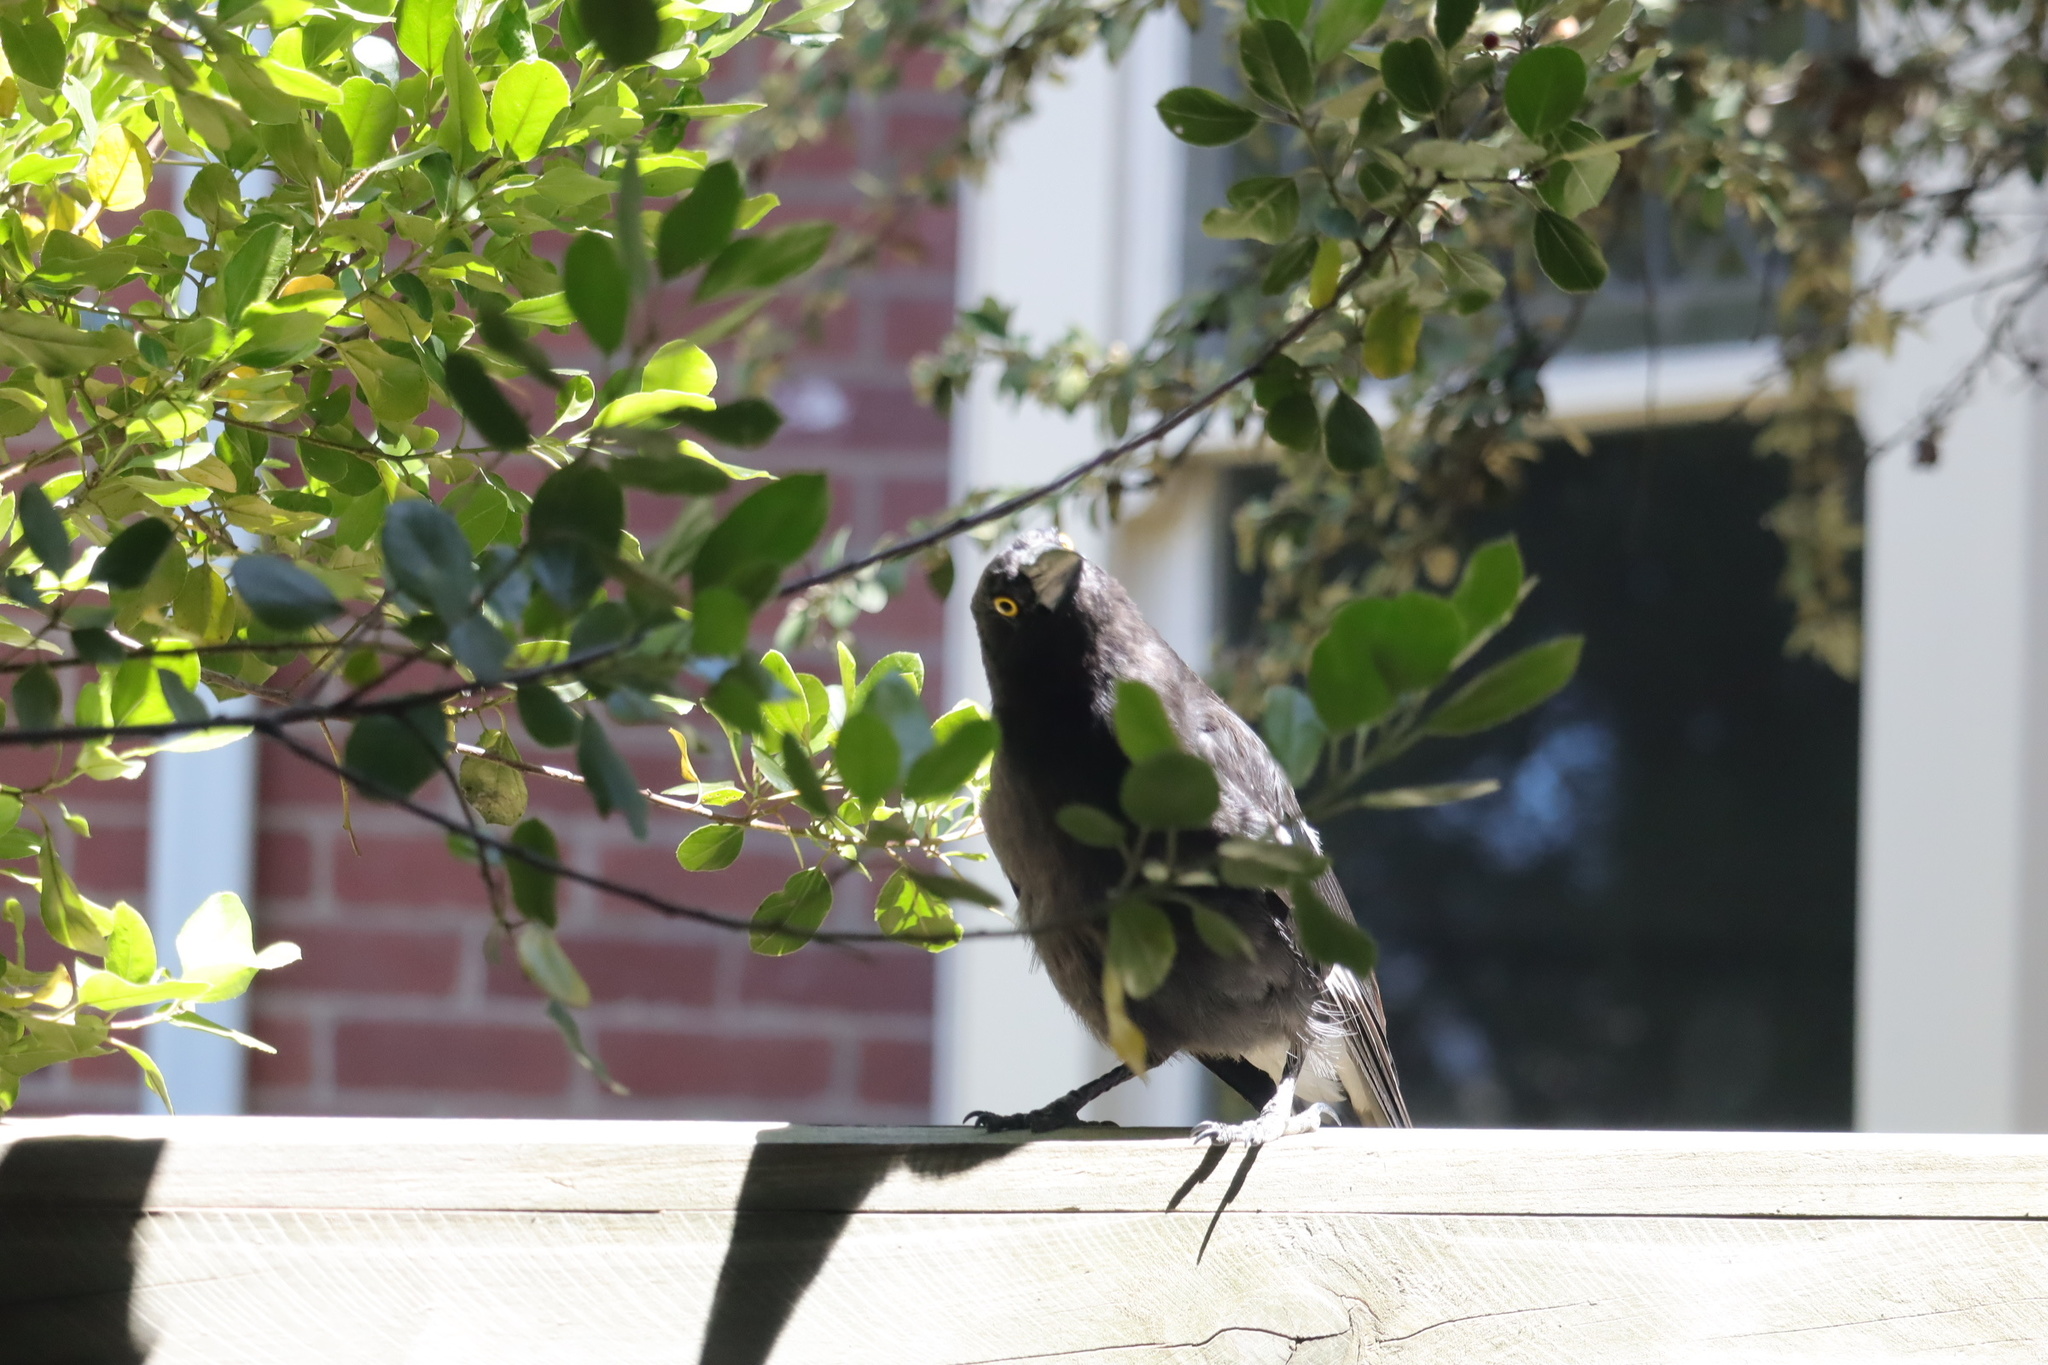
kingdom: Animalia
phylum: Chordata
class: Aves
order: Passeriformes
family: Cracticidae
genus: Strepera
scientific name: Strepera graculina
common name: Pied currawong
